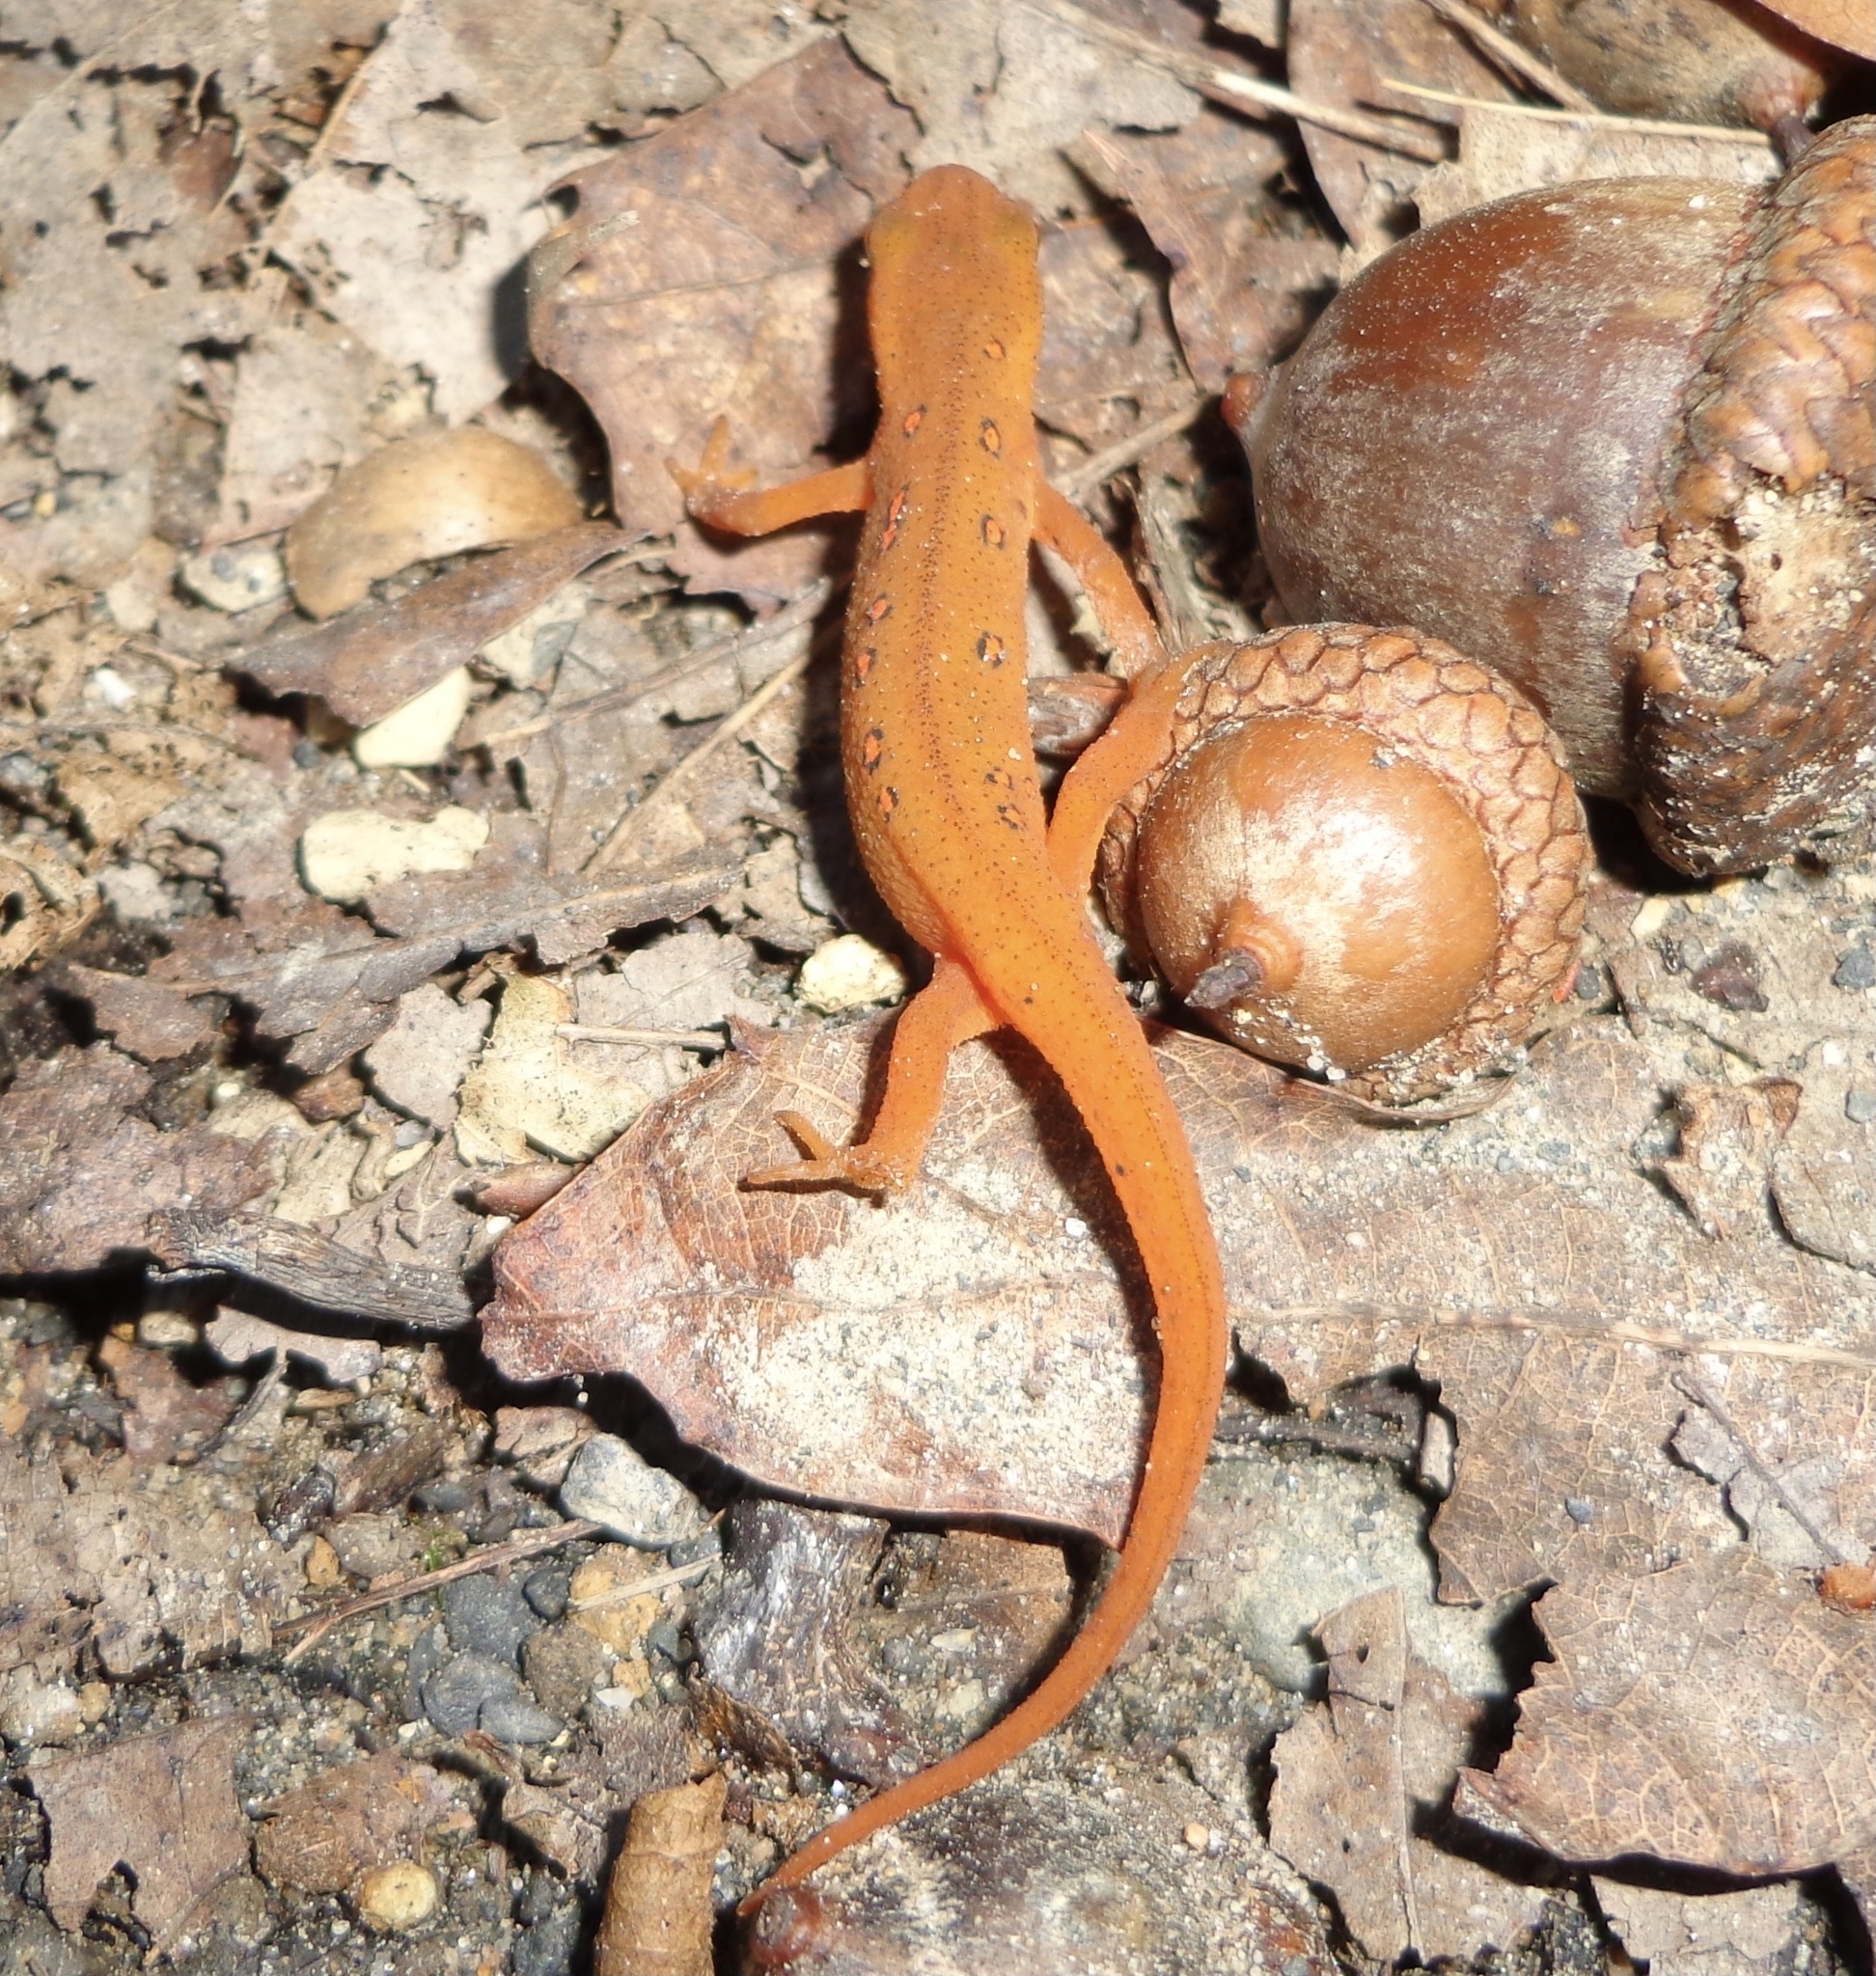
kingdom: Animalia
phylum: Chordata
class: Amphibia
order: Caudata
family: Salamandridae
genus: Notophthalmus
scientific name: Notophthalmus viridescens
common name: Eastern newt
